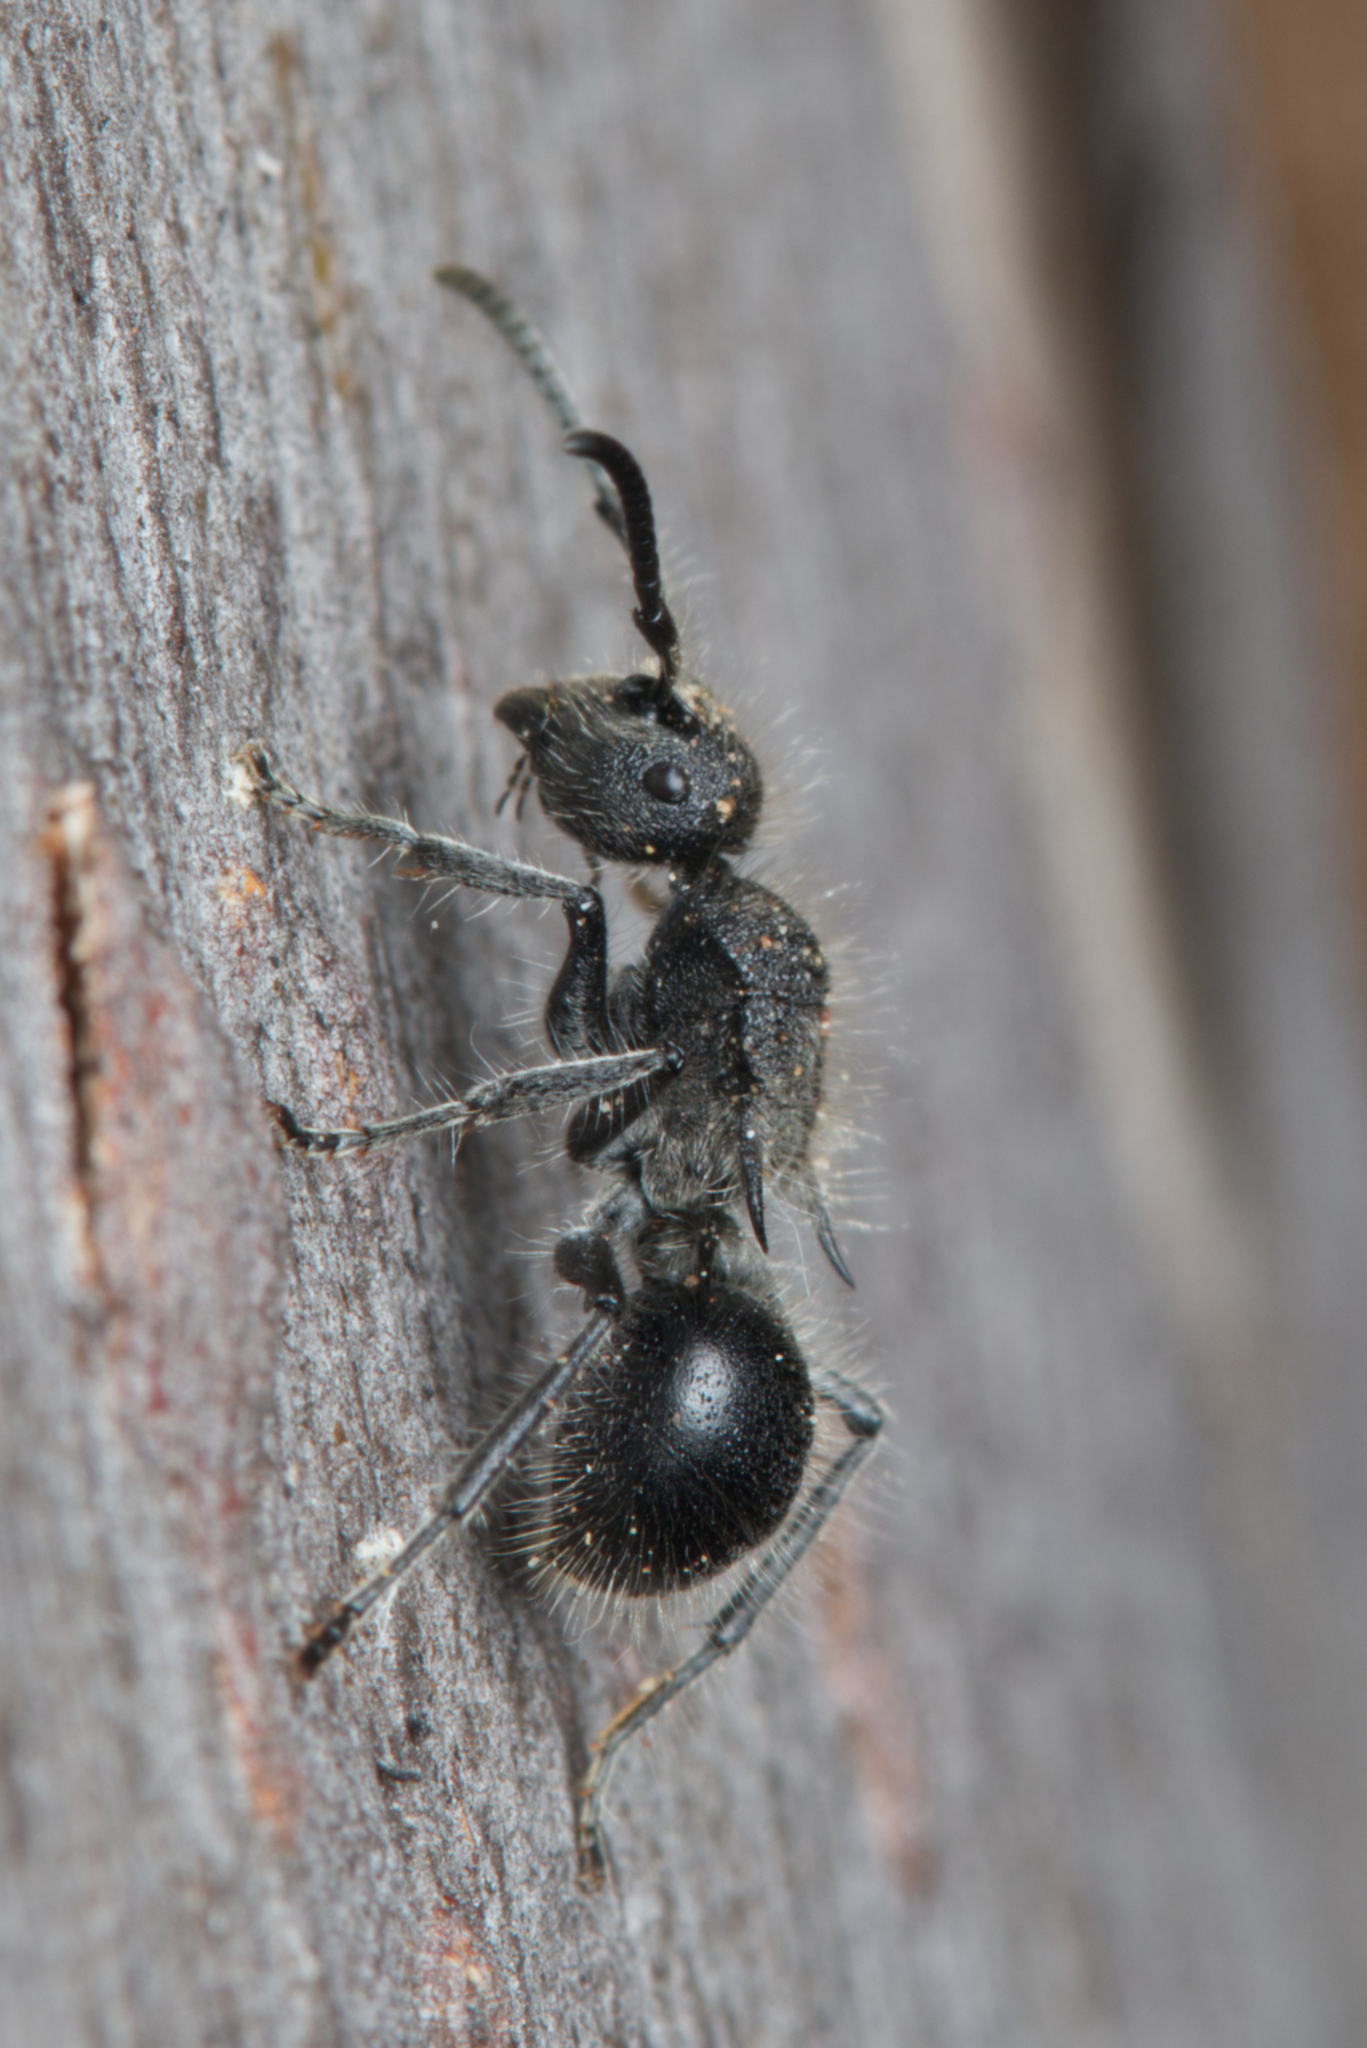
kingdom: Animalia
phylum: Arthropoda
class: Insecta
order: Hymenoptera
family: Formicidae
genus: Polyrhachis
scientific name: Polyrhachis punctiventris
